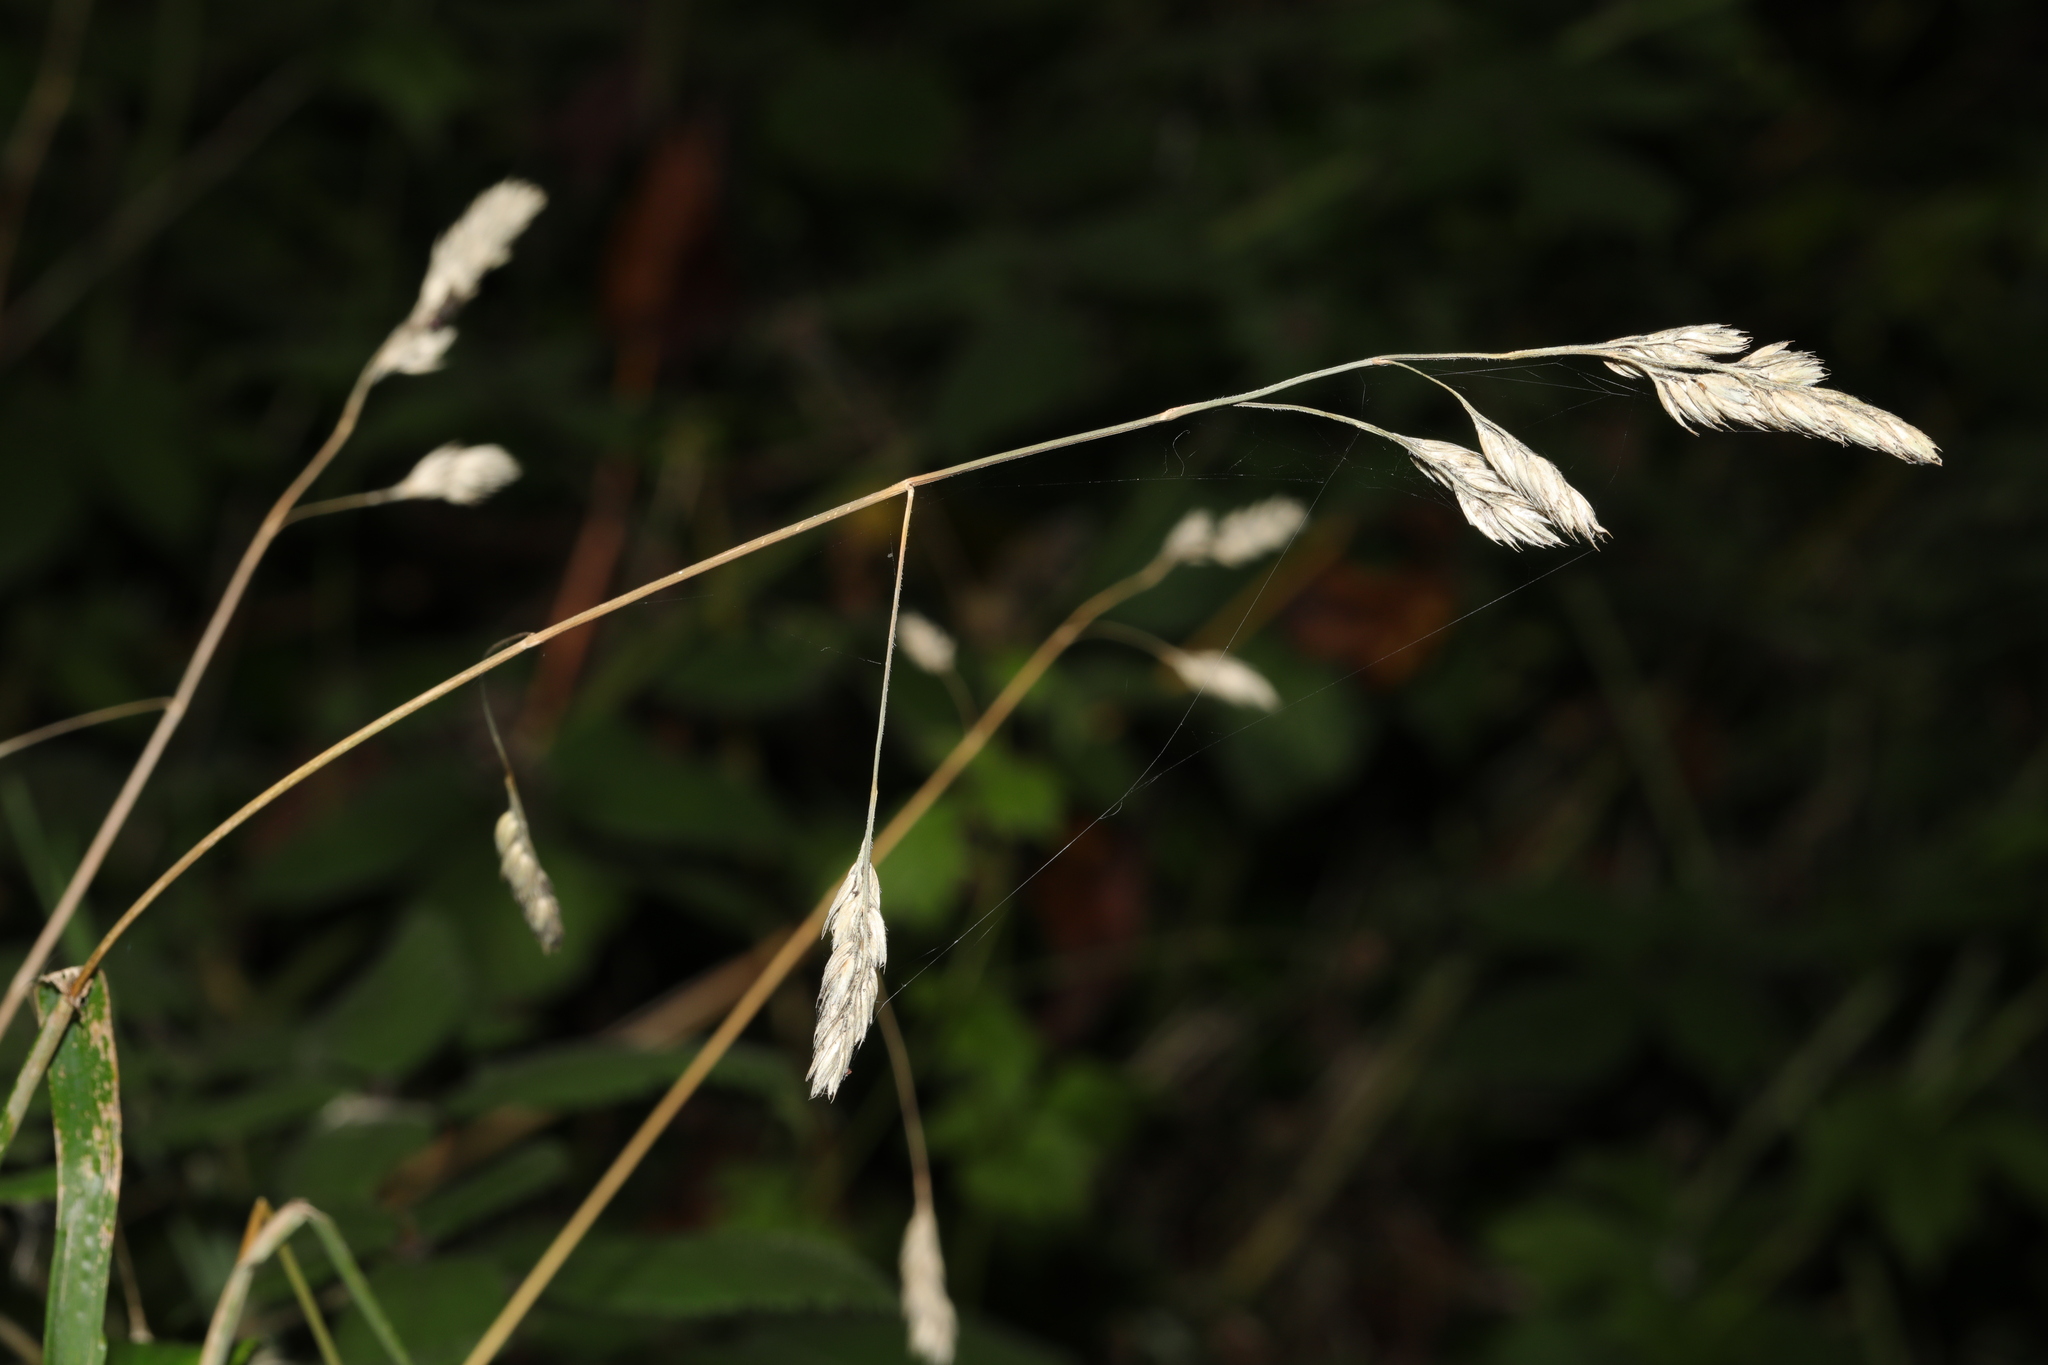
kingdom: Plantae
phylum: Tracheophyta
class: Liliopsida
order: Poales
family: Poaceae
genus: Dactylis
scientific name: Dactylis glomerata
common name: Orchardgrass
